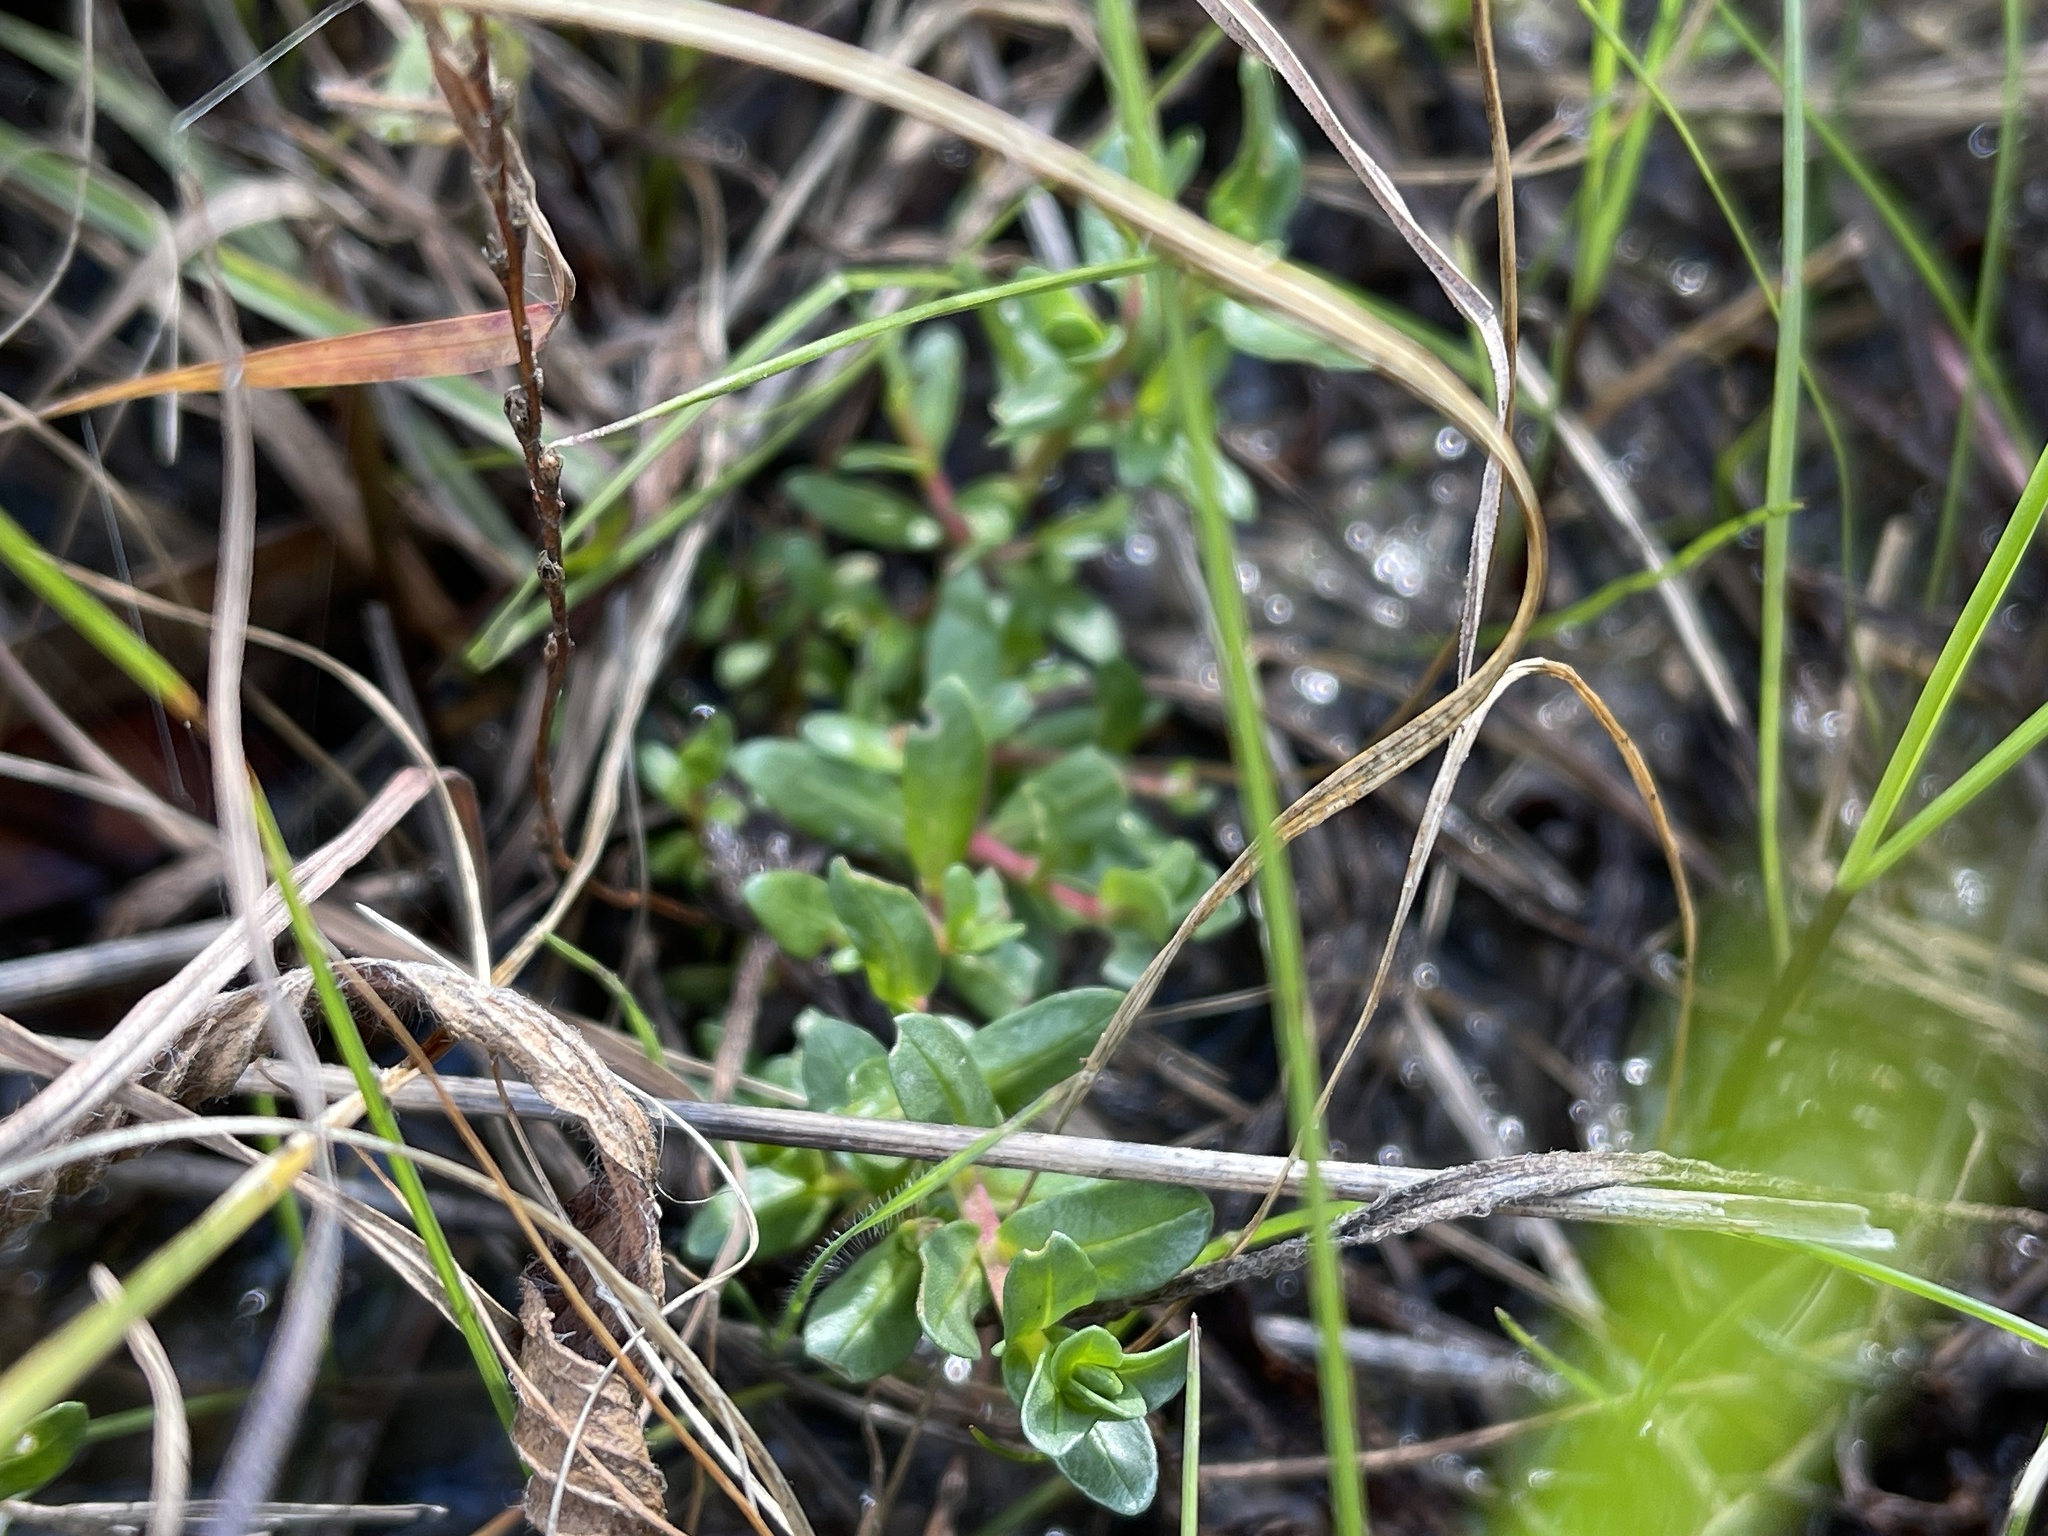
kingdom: Plantae
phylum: Tracheophyta
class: Magnoliopsida
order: Myrtales
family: Lythraceae
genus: Lythrum
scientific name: Lythrum hyssopifolia
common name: Grass-poly
